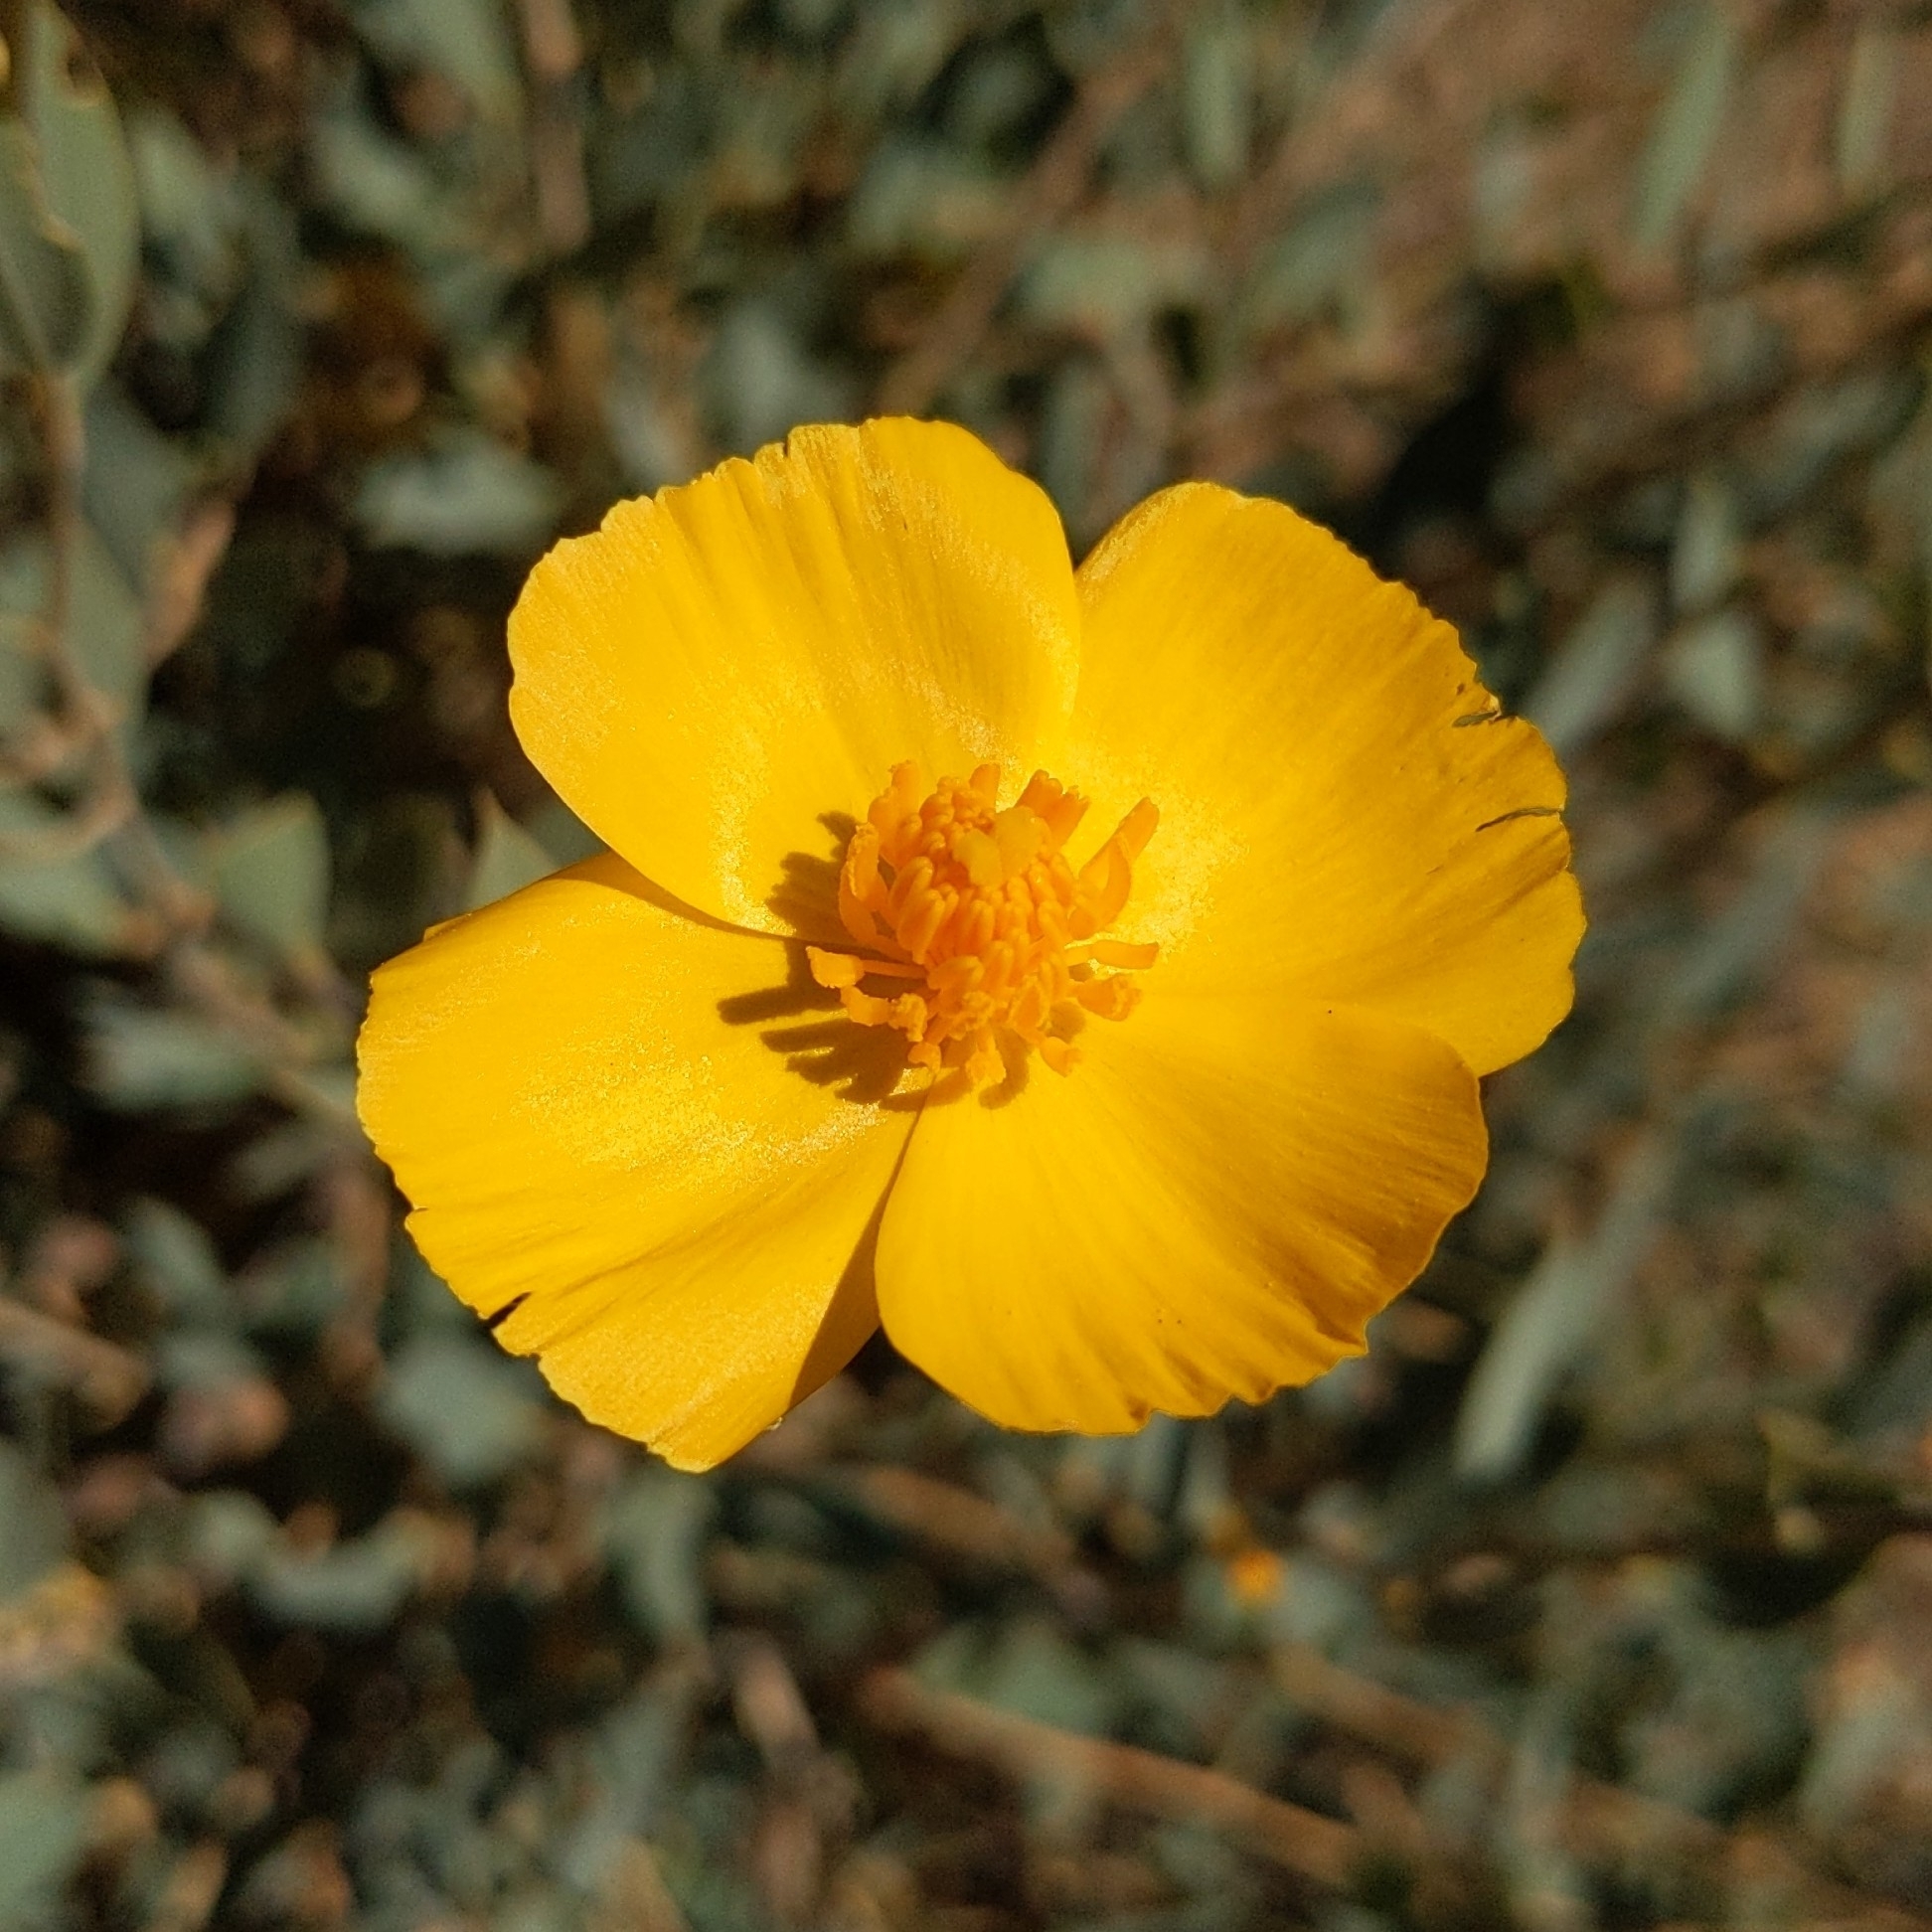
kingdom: Plantae
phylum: Tracheophyta
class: Magnoliopsida
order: Ranunculales
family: Papaveraceae
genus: Dendromecon
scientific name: Dendromecon rigida
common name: Tree poppy
